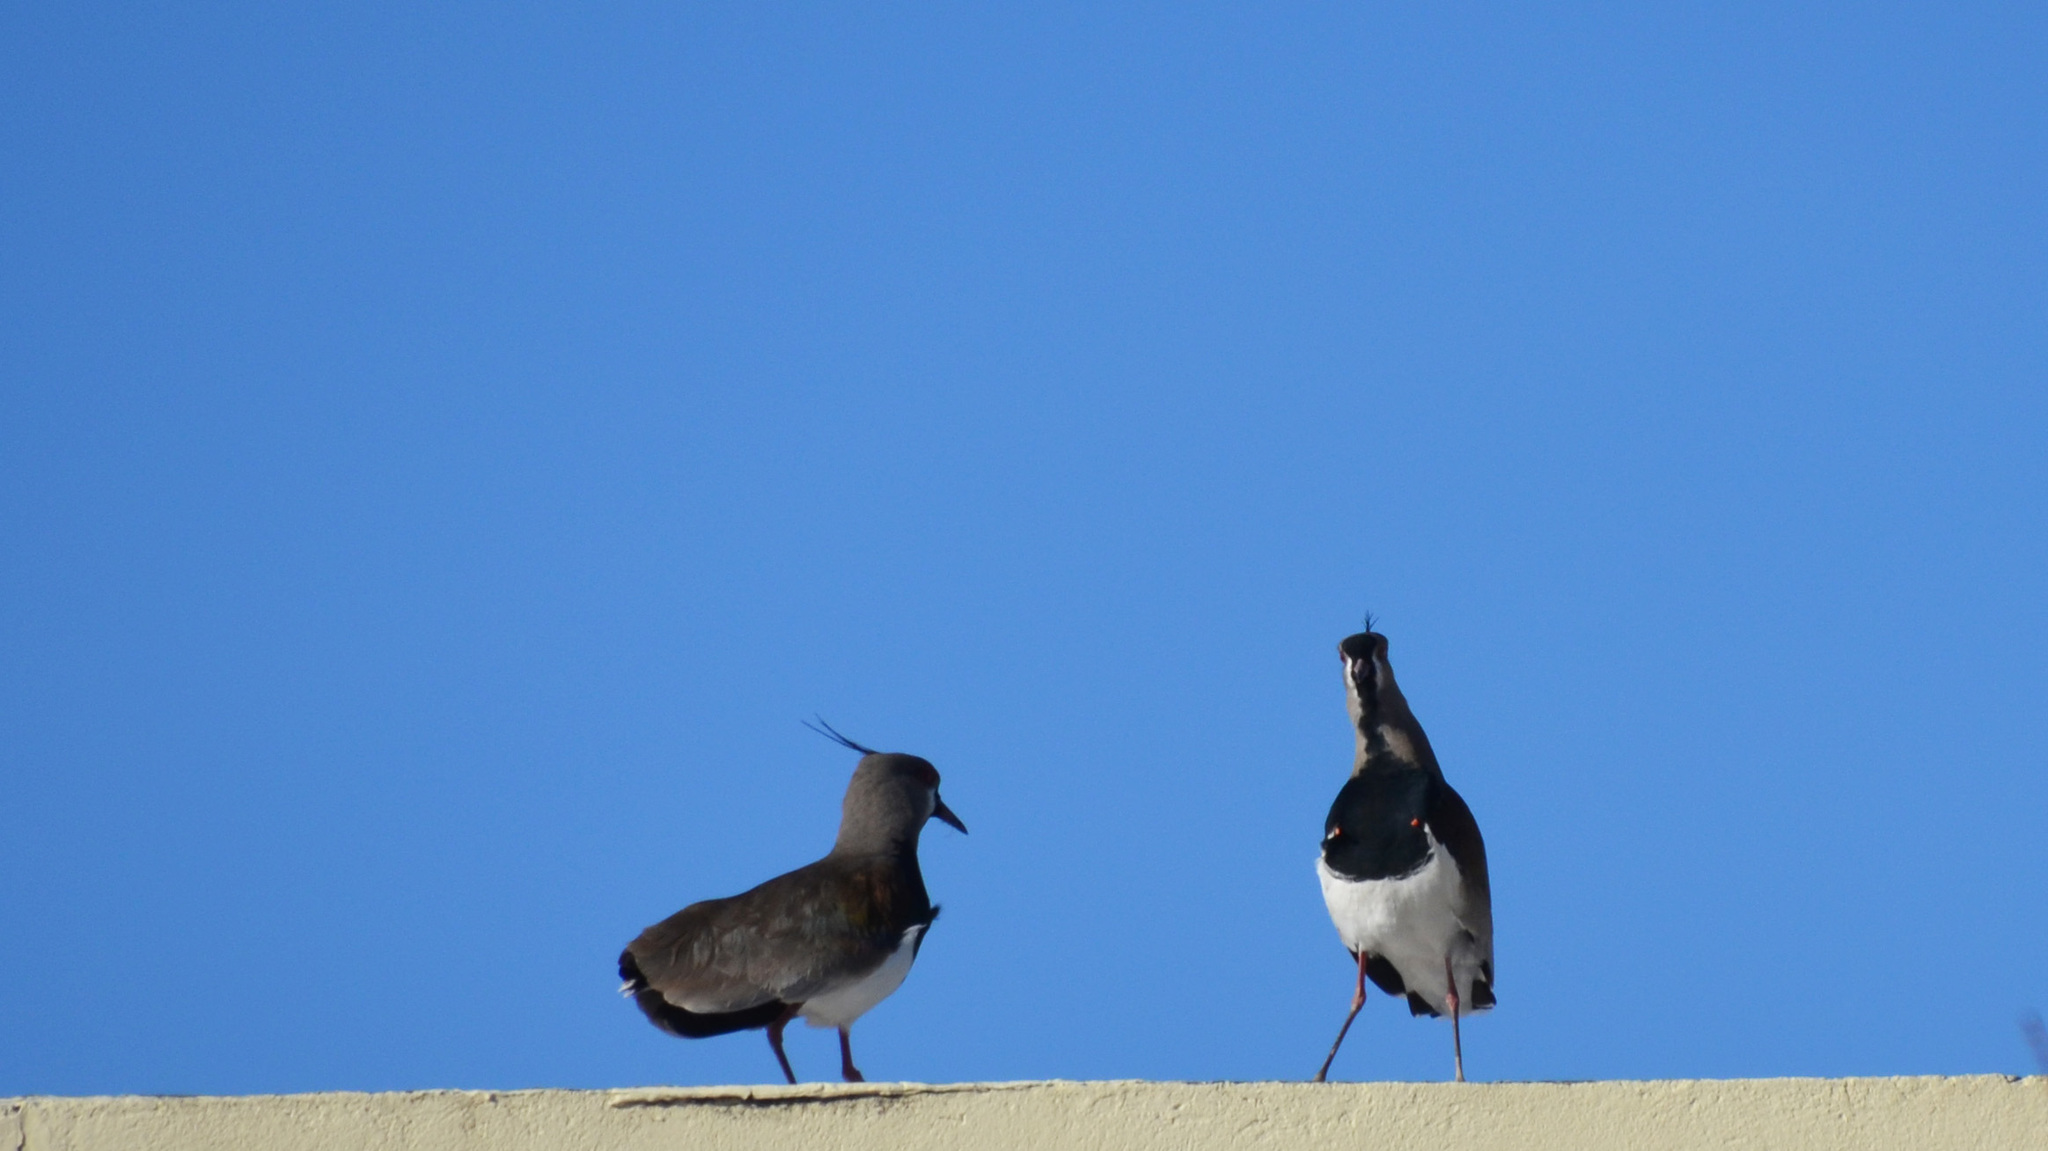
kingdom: Animalia
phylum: Chordata
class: Aves
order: Charadriiformes
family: Charadriidae
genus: Vanellus
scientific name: Vanellus chilensis
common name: Southern lapwing
